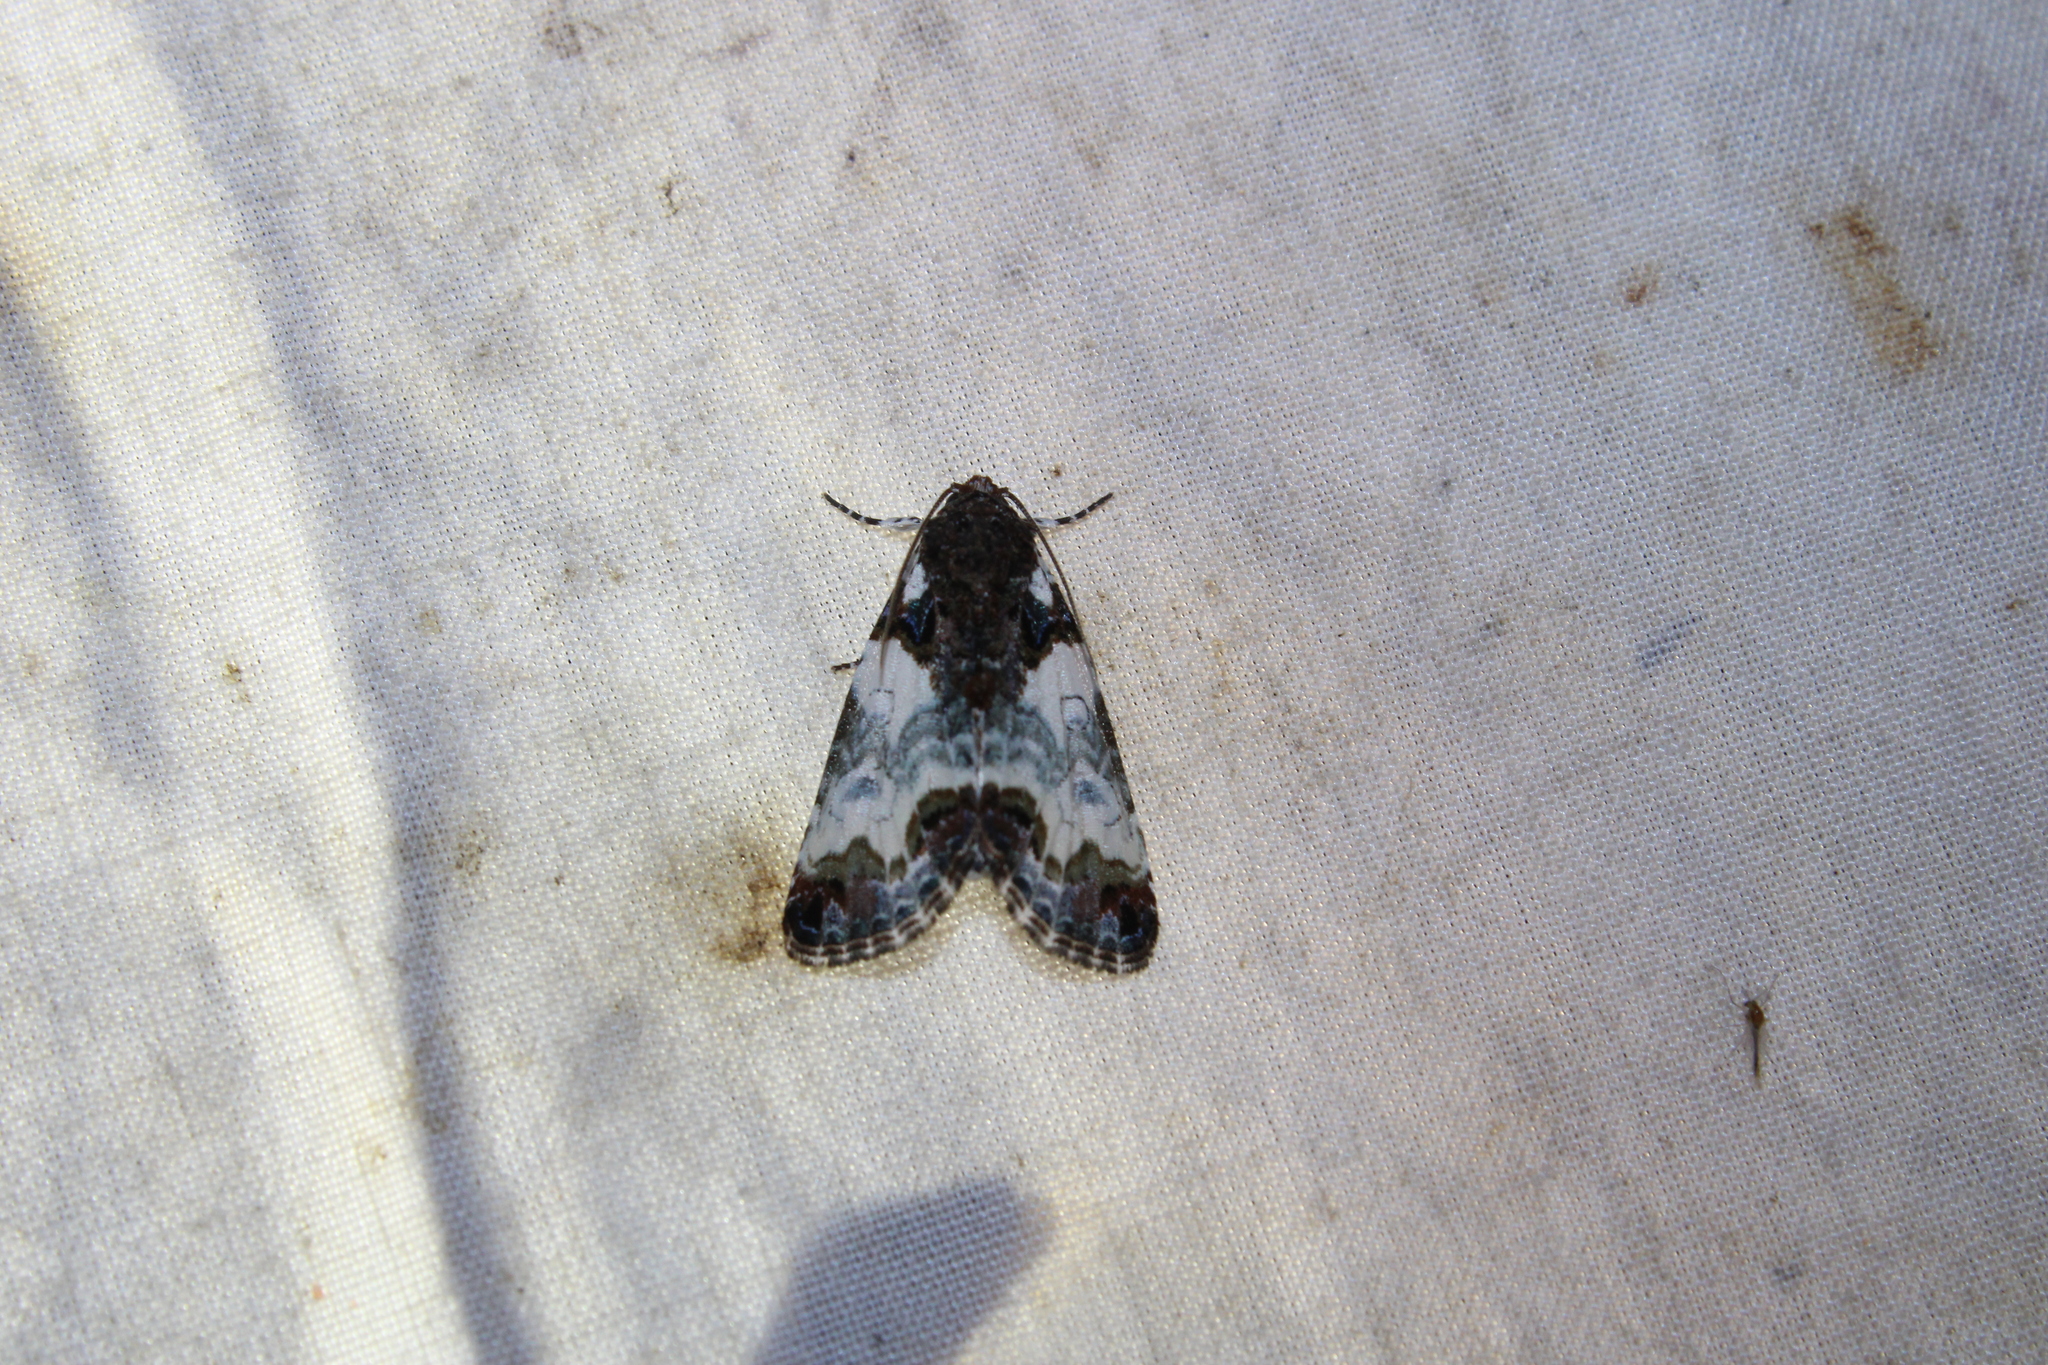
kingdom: Animalia
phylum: Arthropoda
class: Insecta
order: Lepidoptera
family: Noctuidae
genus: Cerma
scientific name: Cerma cerintha
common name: Tufted bird-dropping moth
